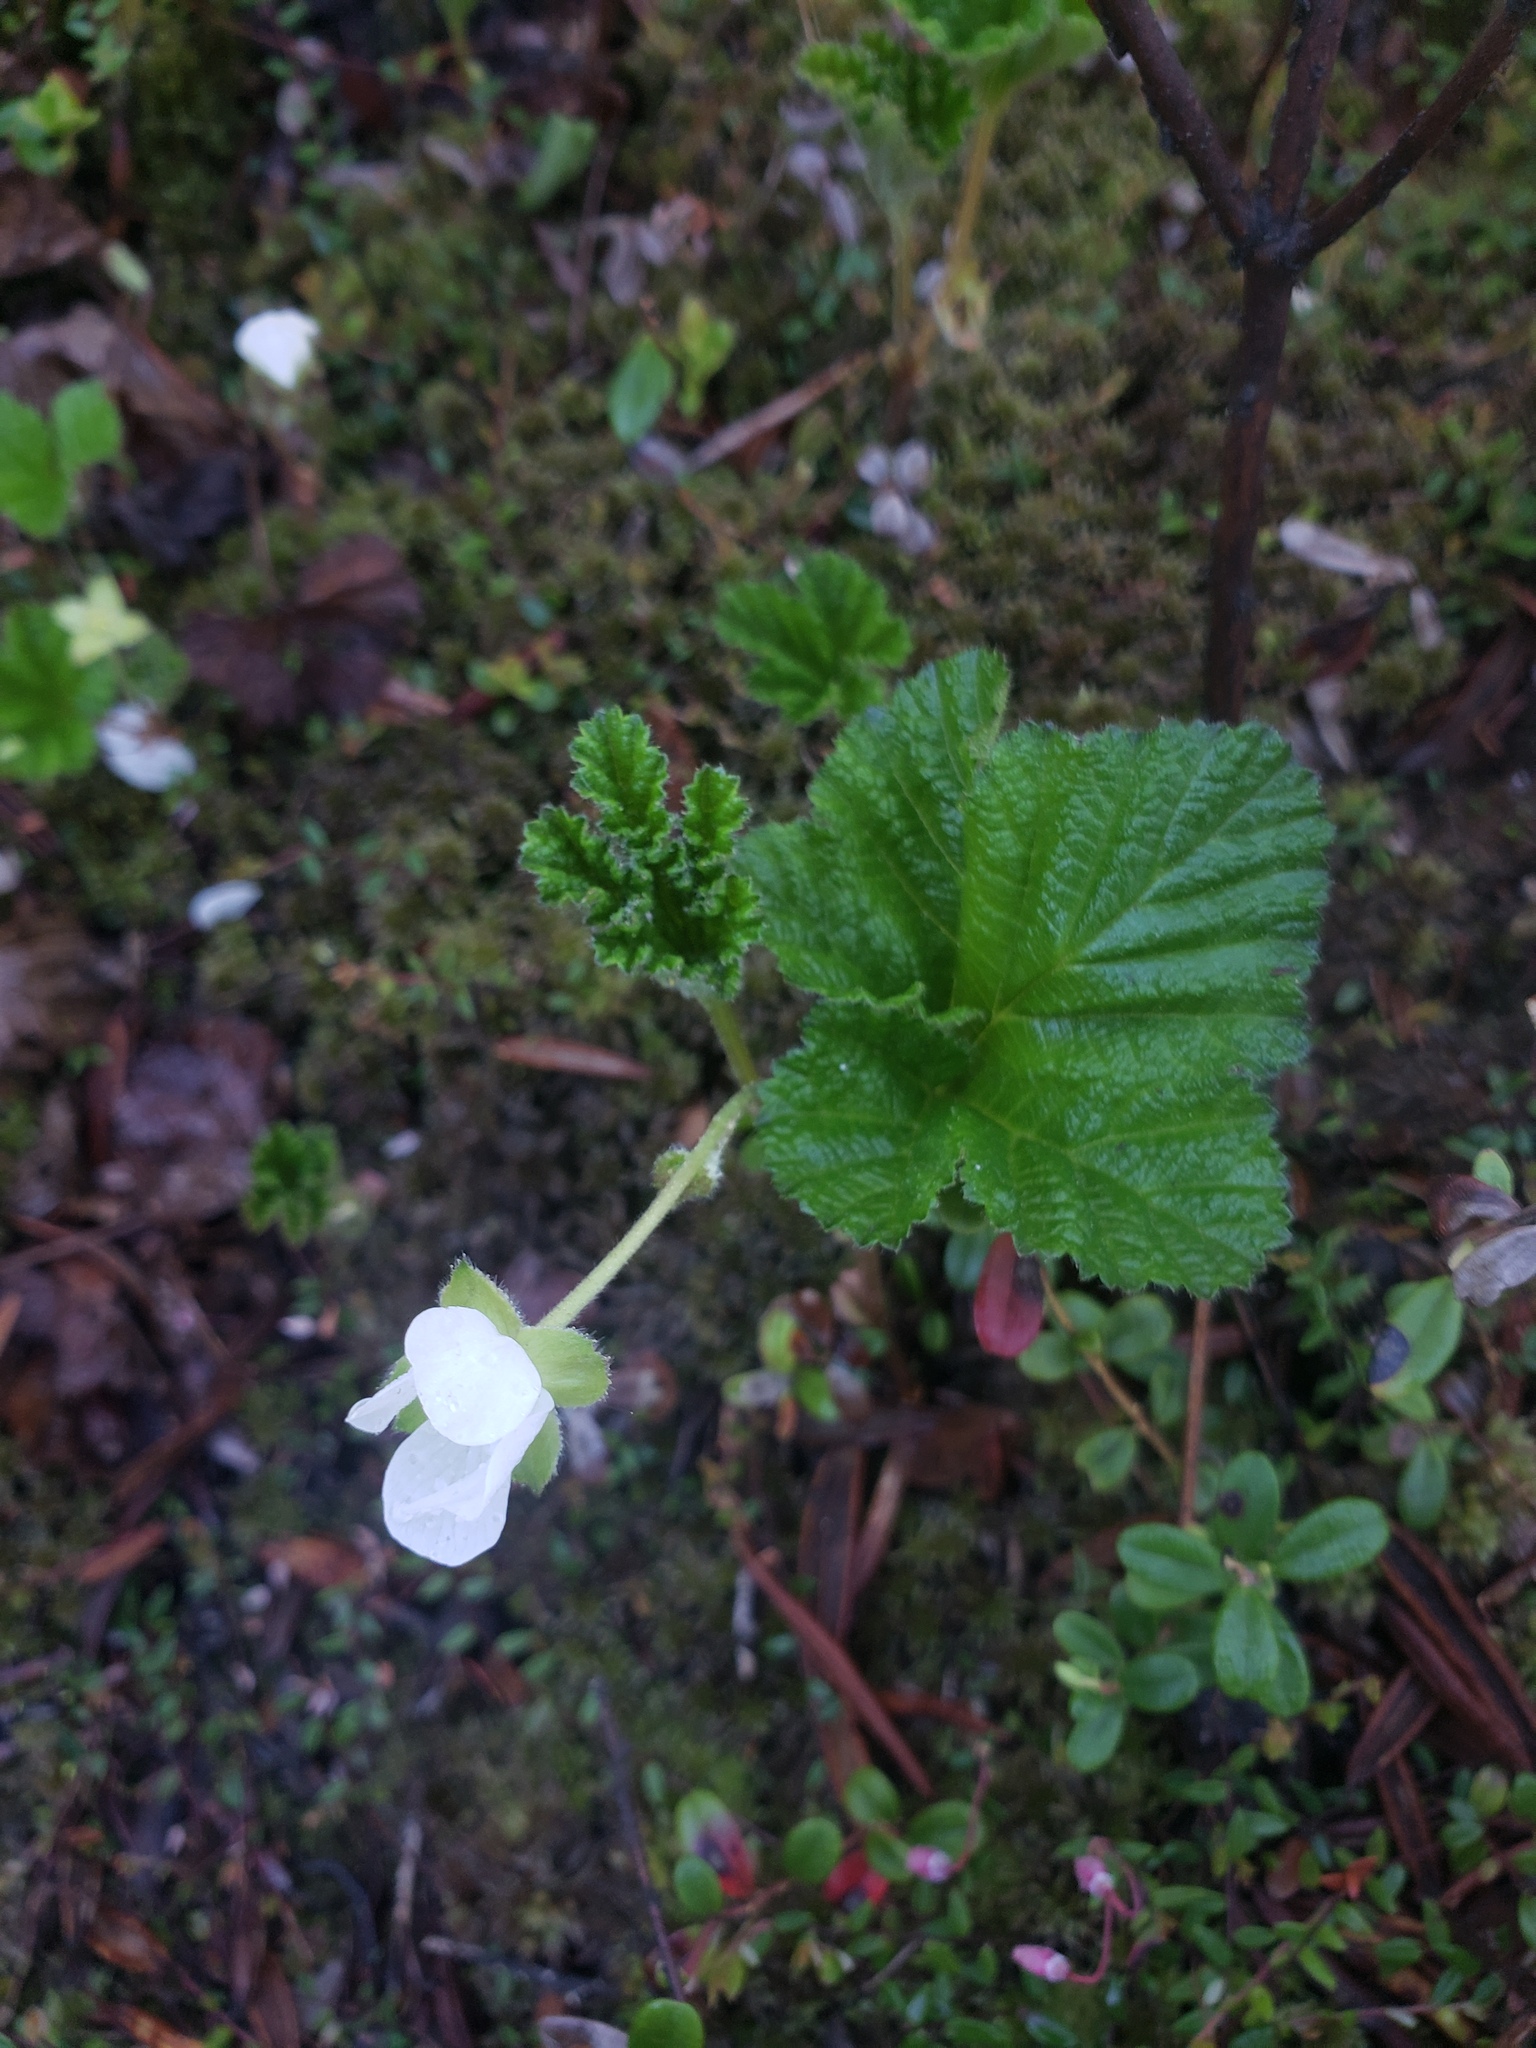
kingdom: Plantae
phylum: Tracheophyta
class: Magnoliopsida
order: Rosales
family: Rosaceae
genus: Rubus
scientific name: Rubus chamaemorus
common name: Cloudberry
